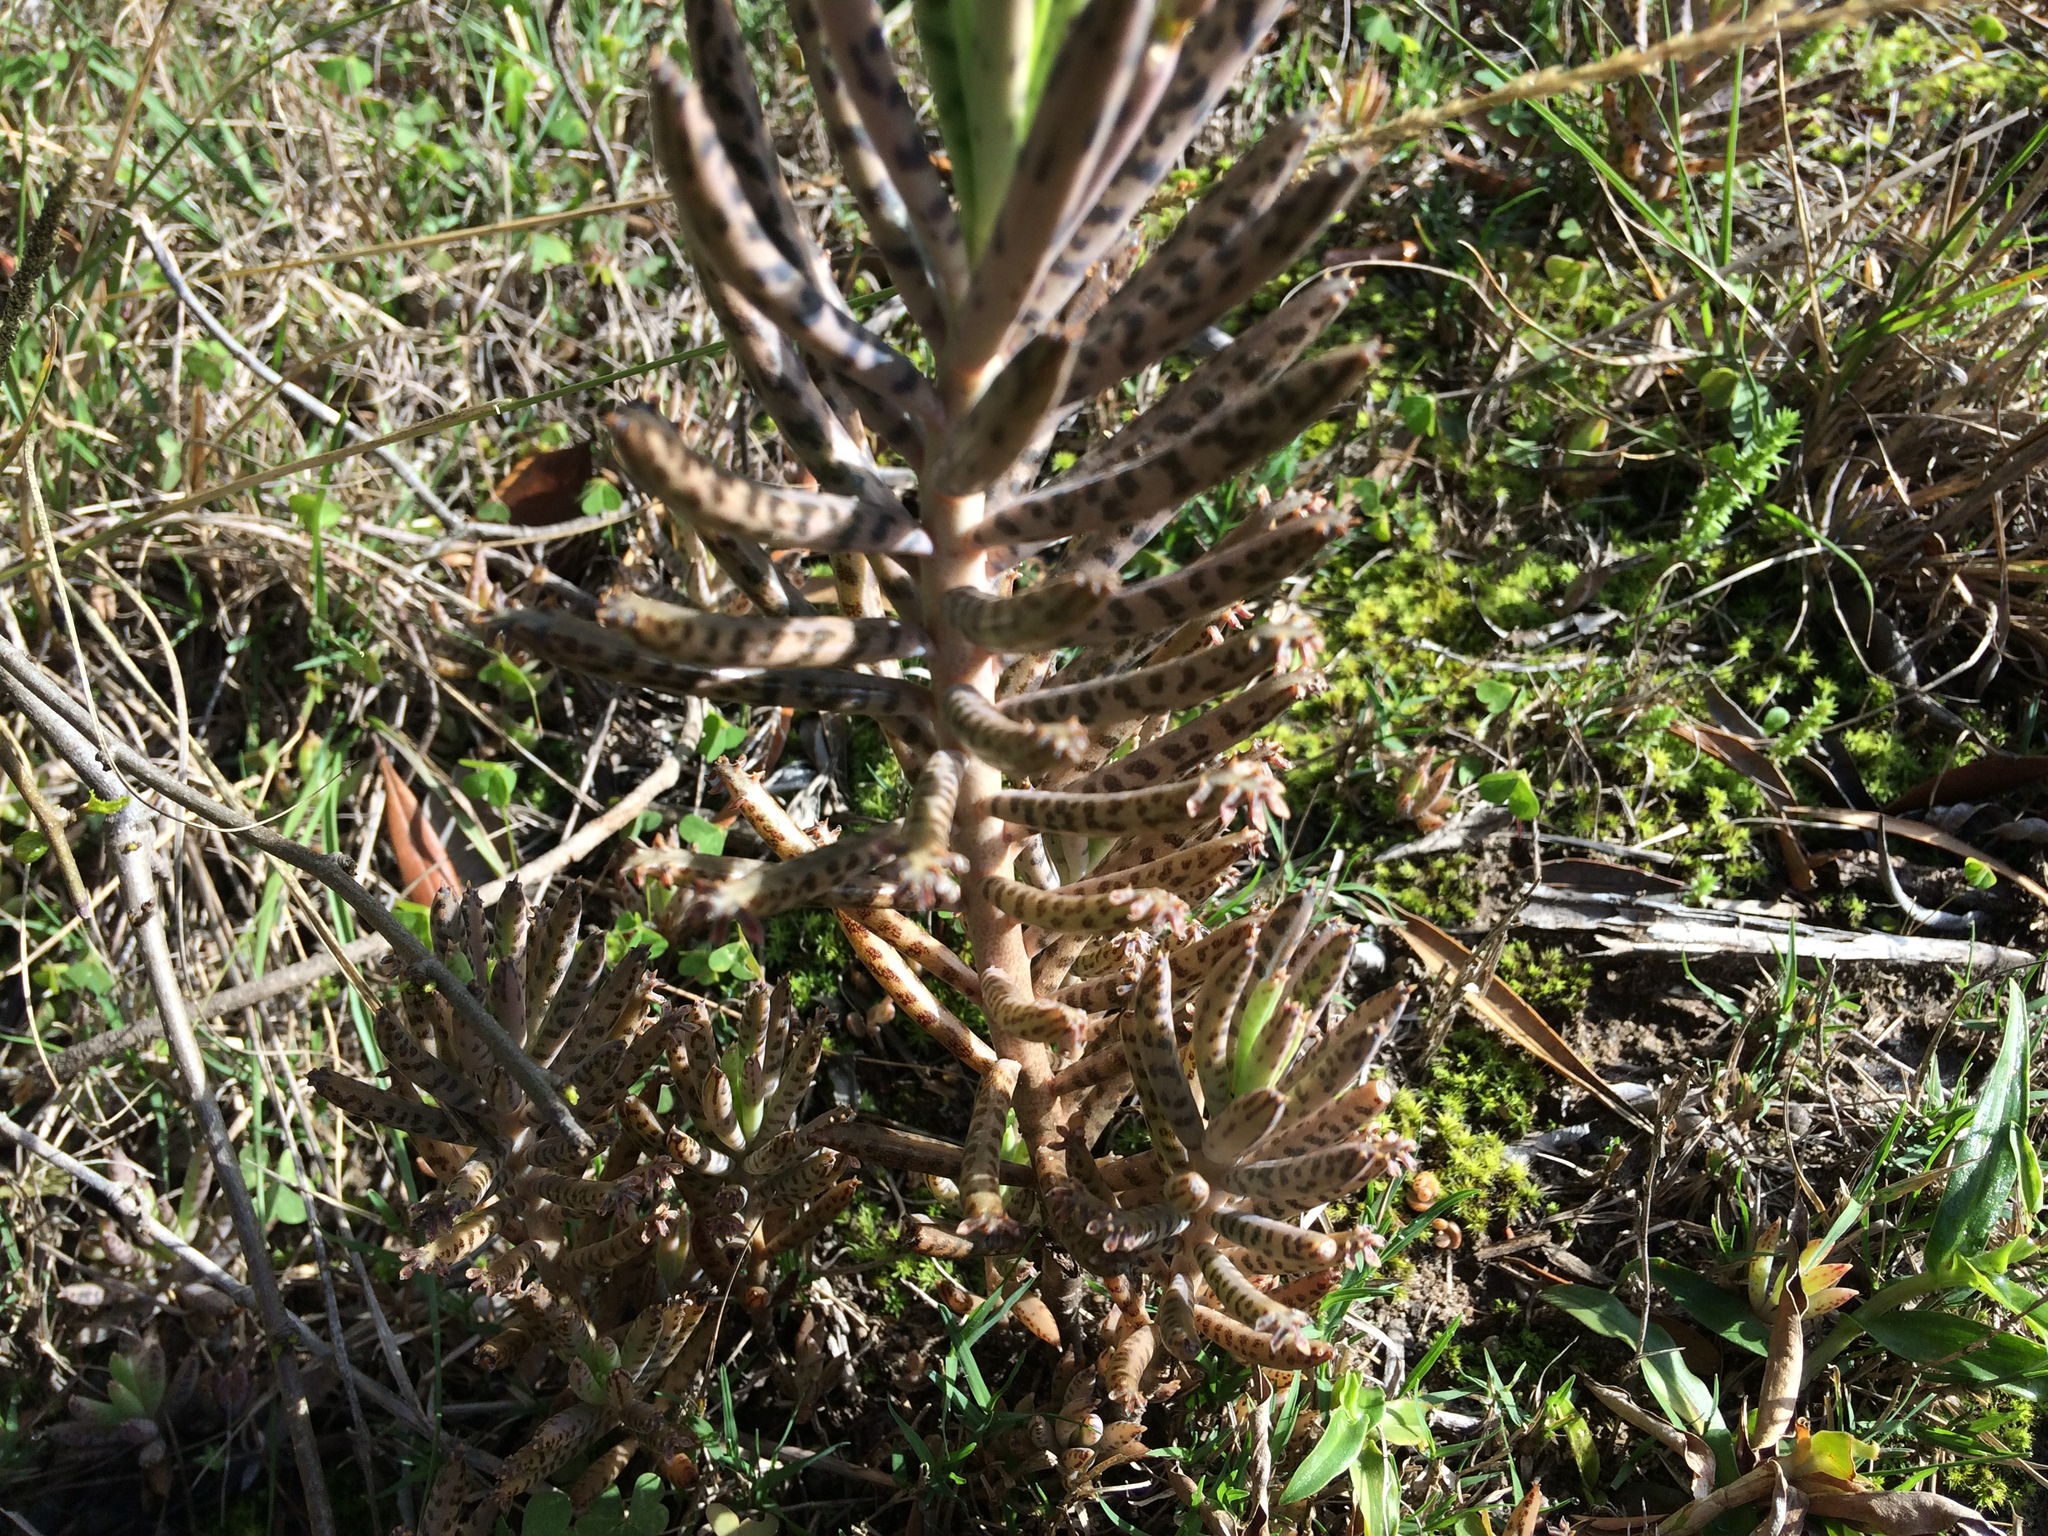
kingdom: Plantae
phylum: Tracheophyta
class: Magnoliopsida
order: Saxifragales
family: Crassulaceae
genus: Kalanchoe
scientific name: Kalanchoe delagoensis
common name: Chandelier plant
